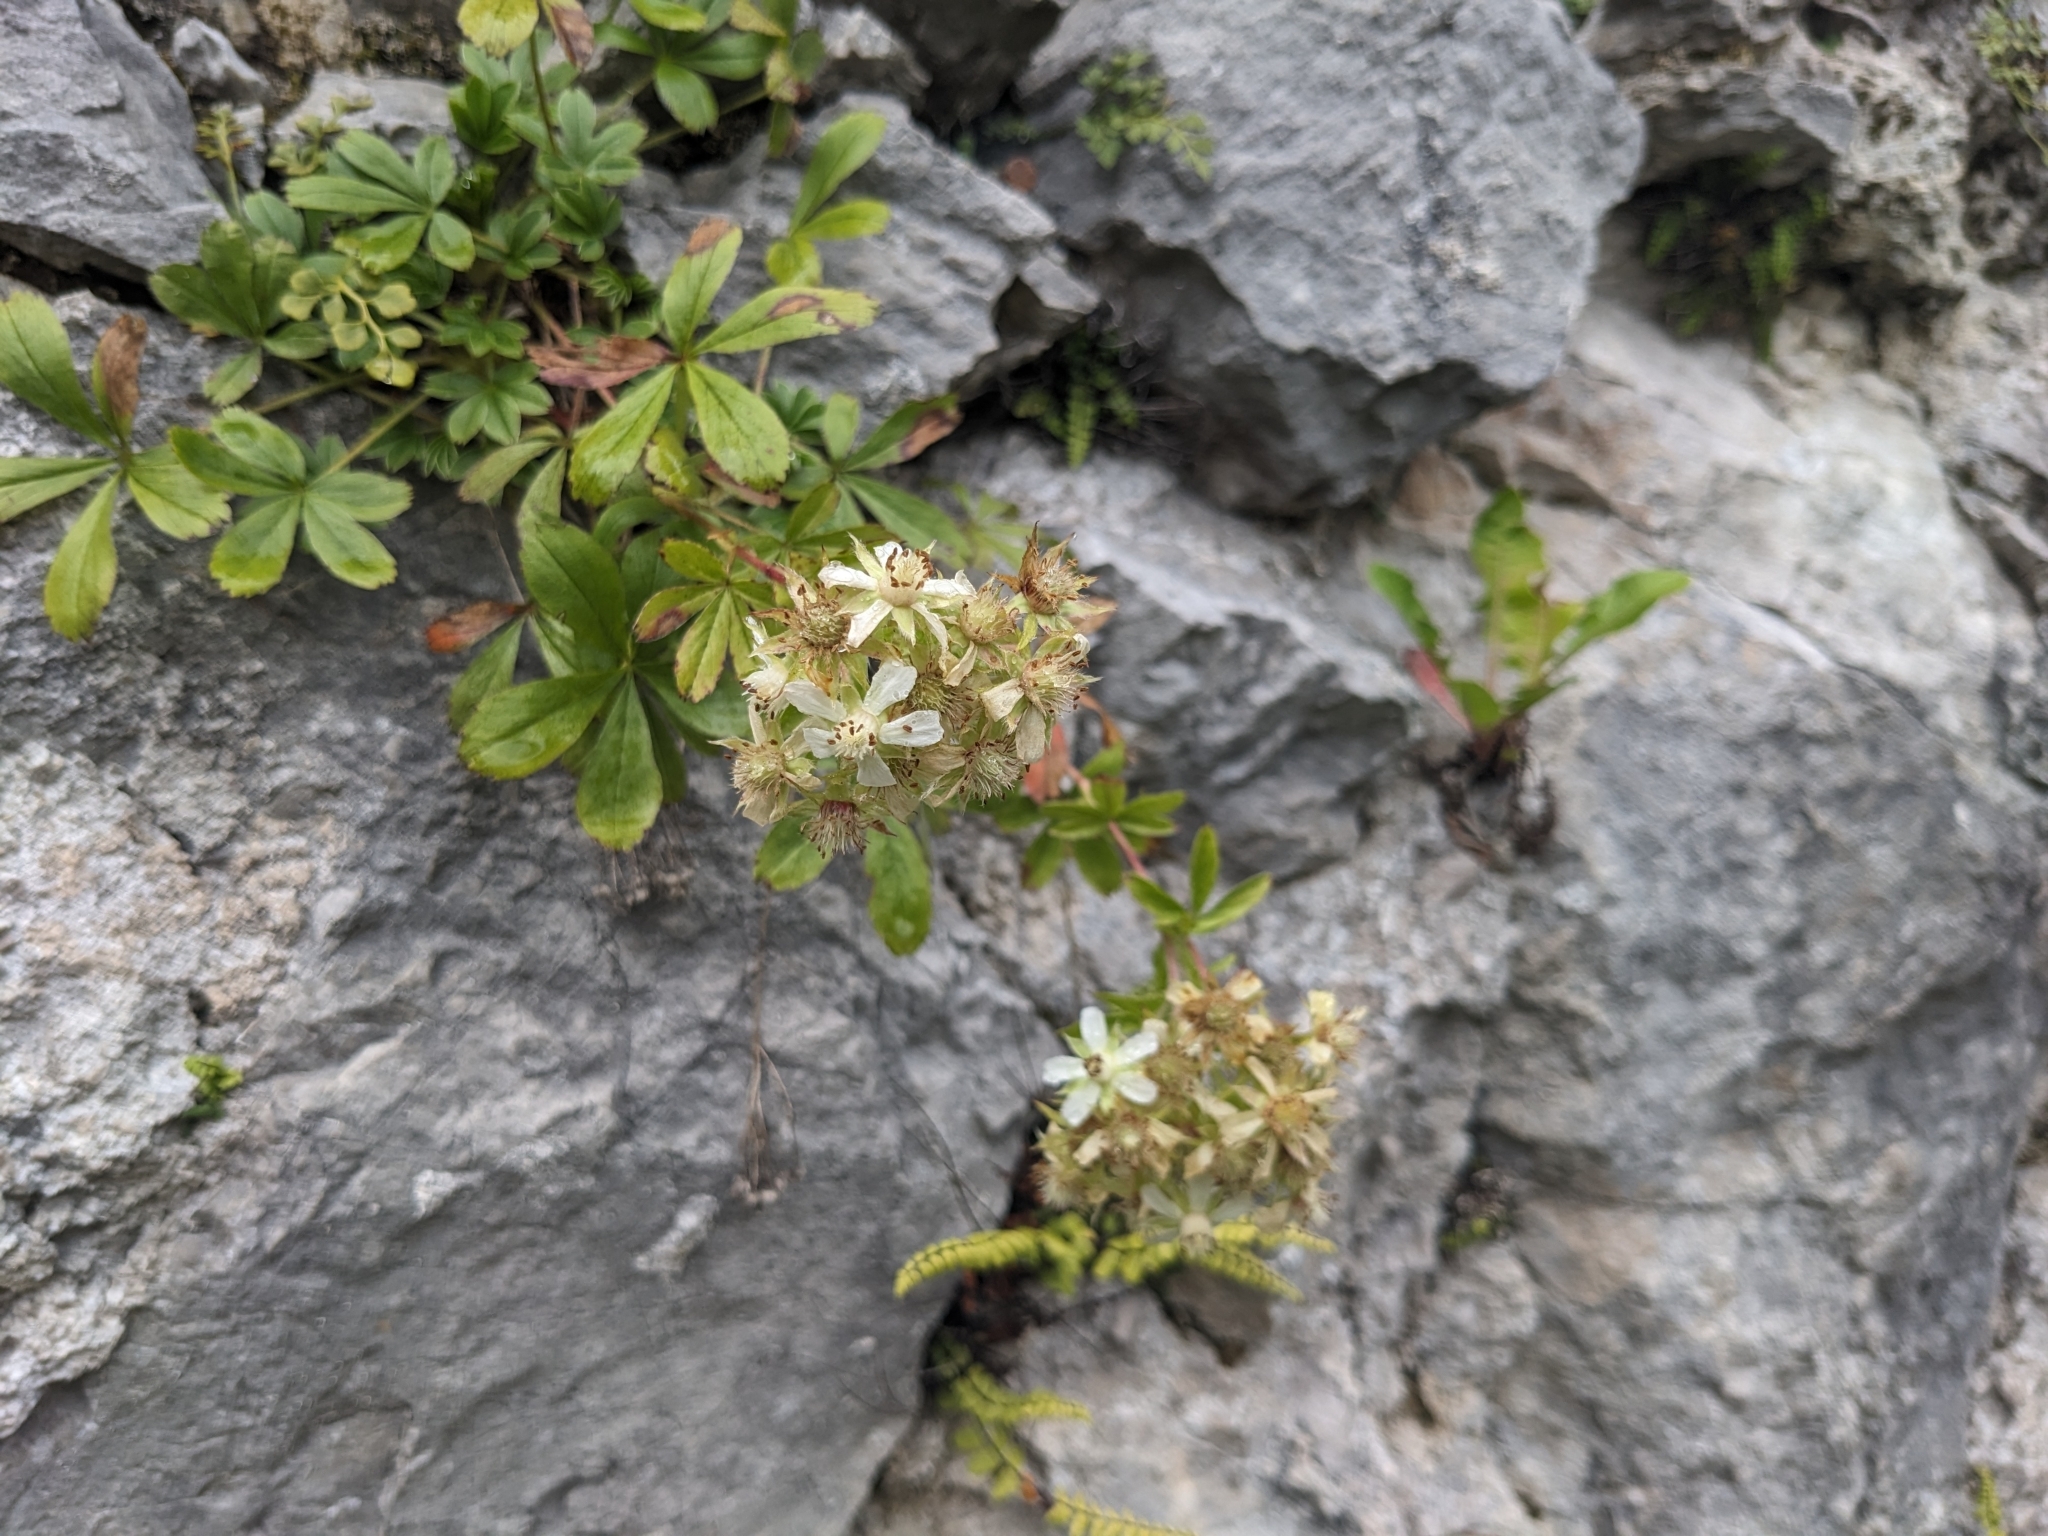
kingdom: Plantae
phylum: Tracheophyta
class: Magnoliopsida
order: Rosales
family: Rosaceae
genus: Potentilla
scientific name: Potentilla caulescens
